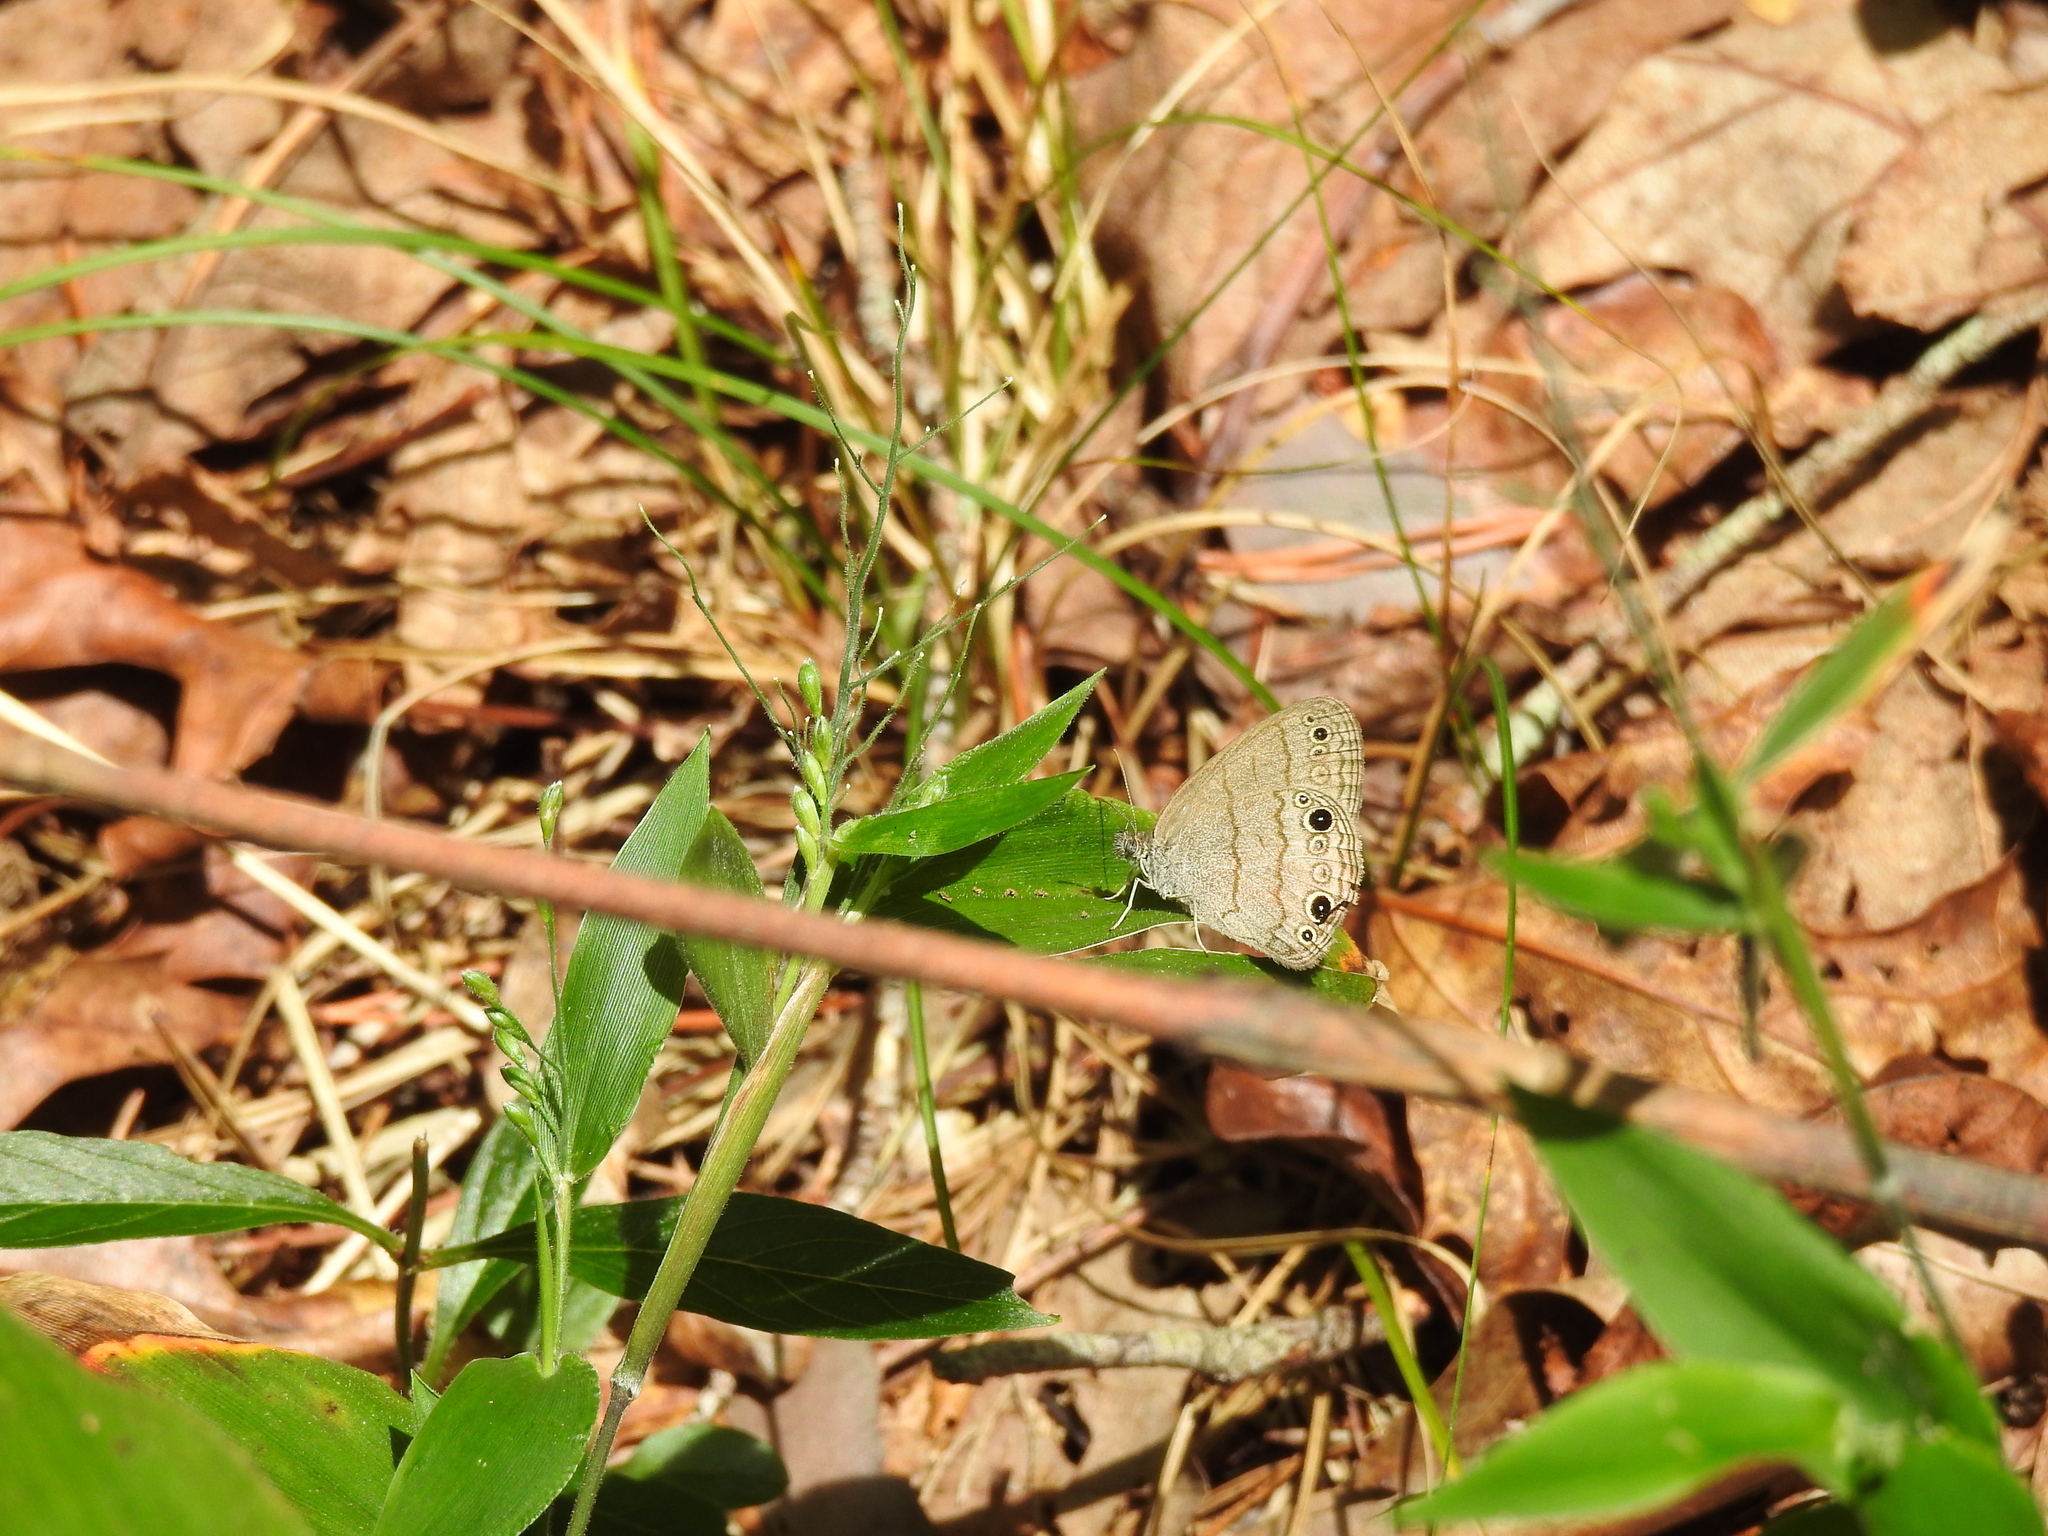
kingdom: Animalia
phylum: Arthropoda
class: Insecta
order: Lepidoptera
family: Nymphalidae
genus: Hermeuptychia
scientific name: Hermeuptychia hermes
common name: Hermes satyr
